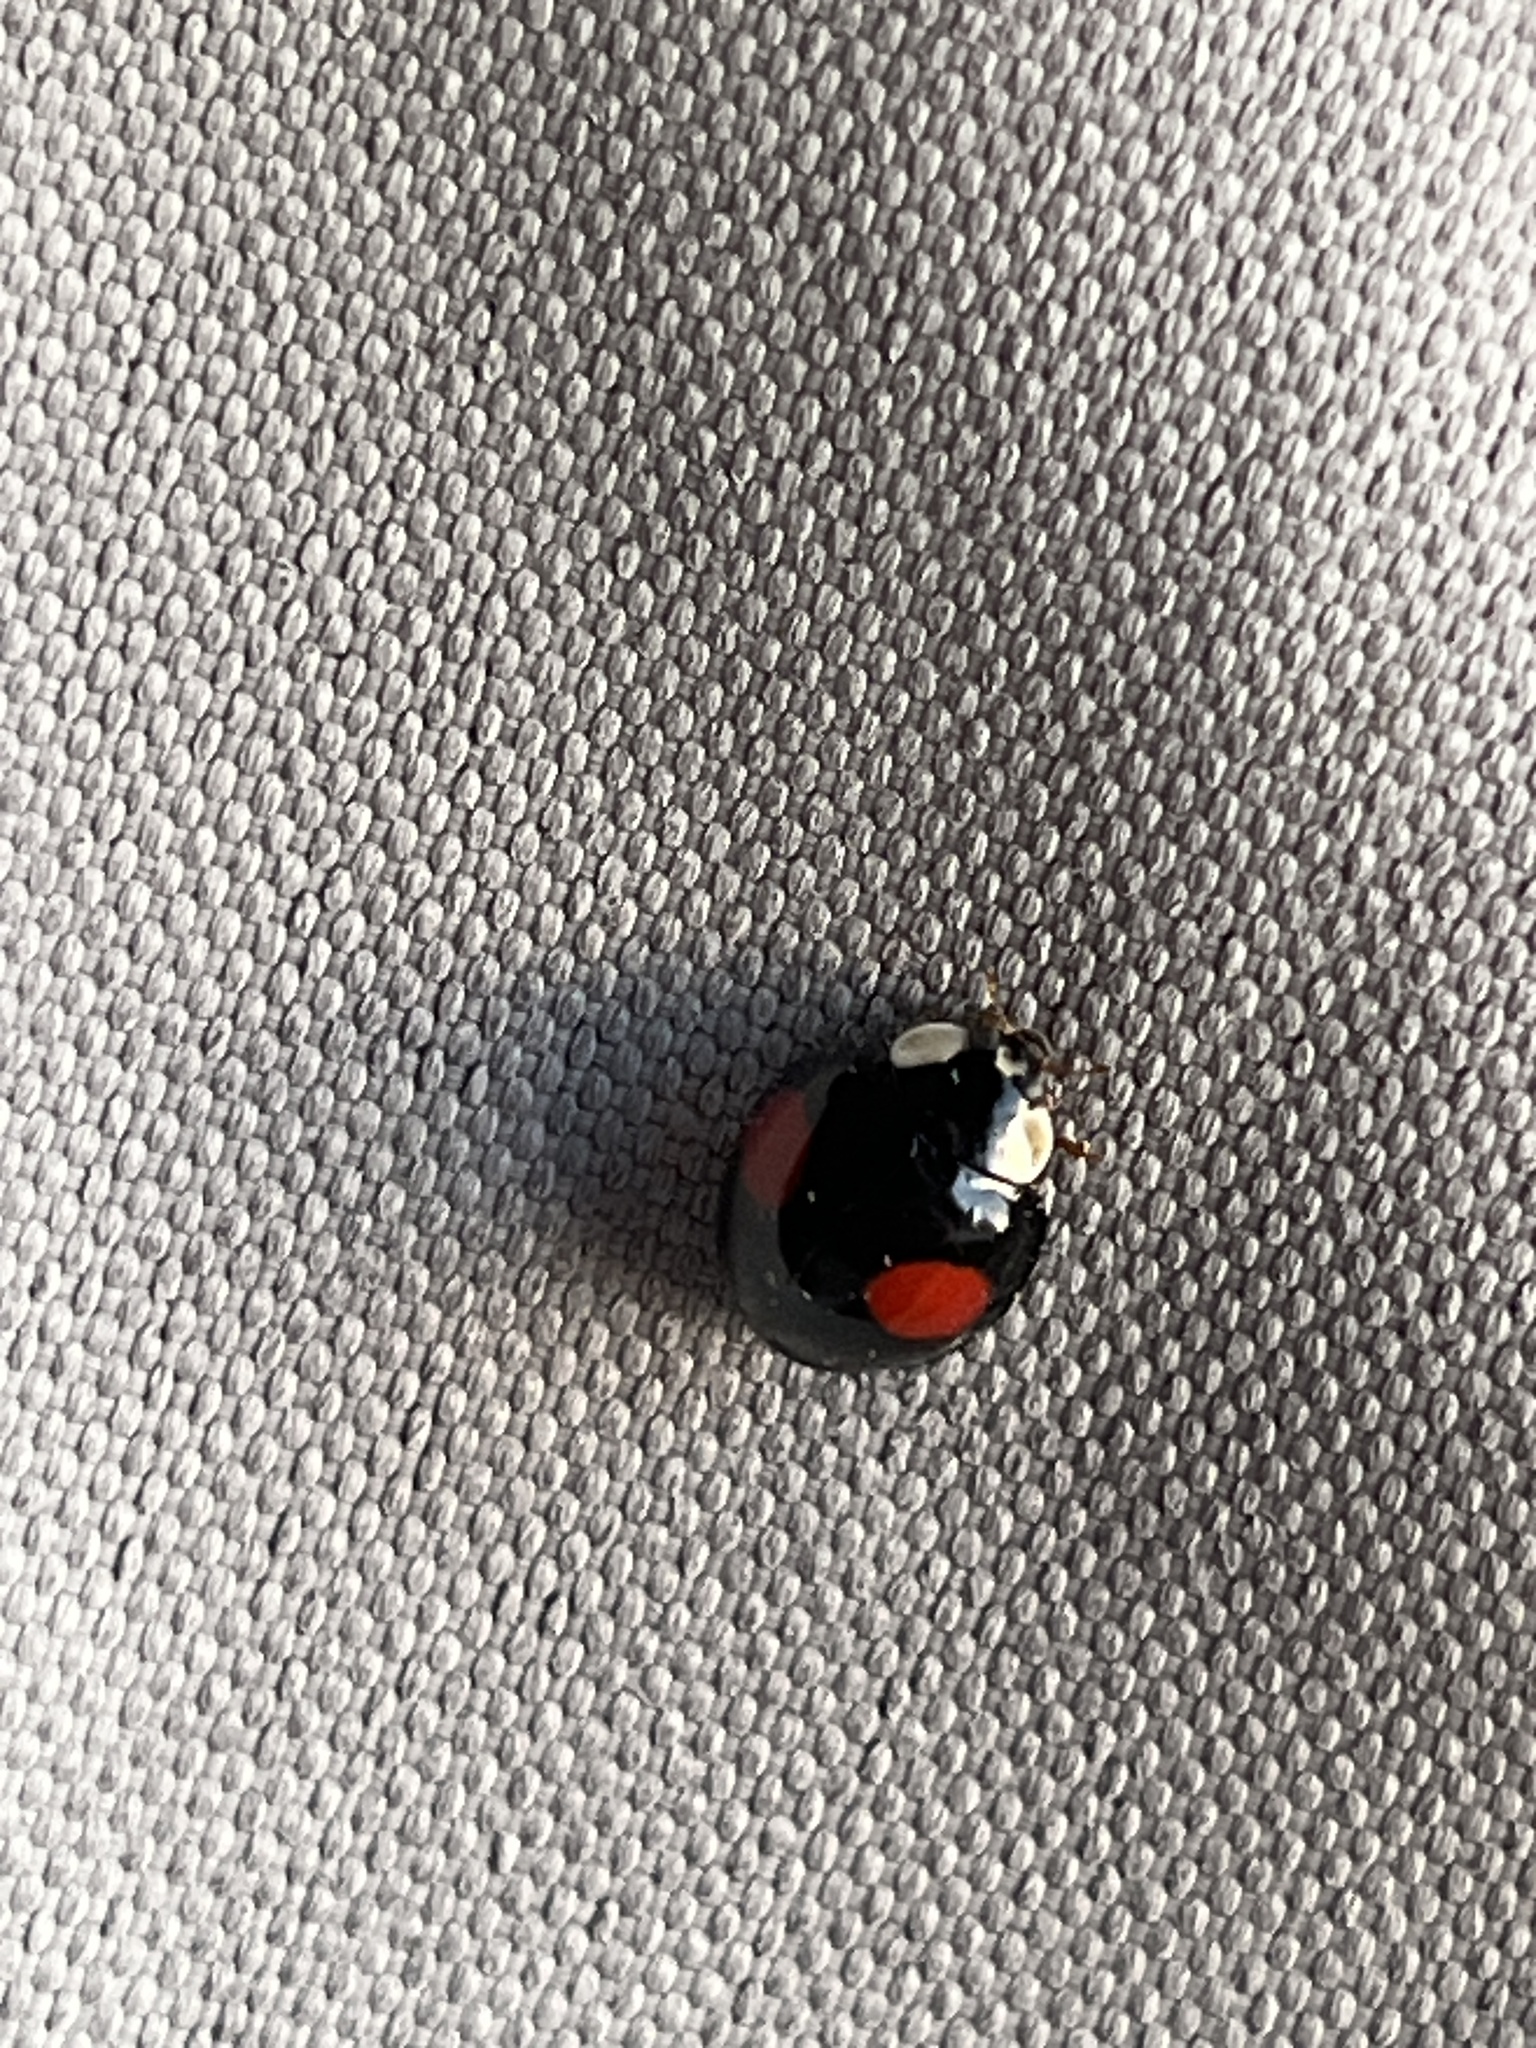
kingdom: Animalia
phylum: Arthropoda
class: Insecta
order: Coleoptera
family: Coccinellidae
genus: Harmonia
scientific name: Harmonia axyridis
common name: Harlequin ladybird
